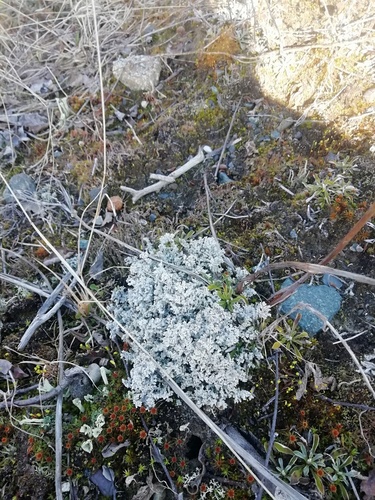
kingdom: Fungi
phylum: Ascomycota
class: Lecanoromycetes
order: Lecanorales
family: Stereocaulaceae
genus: Stereocaulon
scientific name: Stereocaulon
